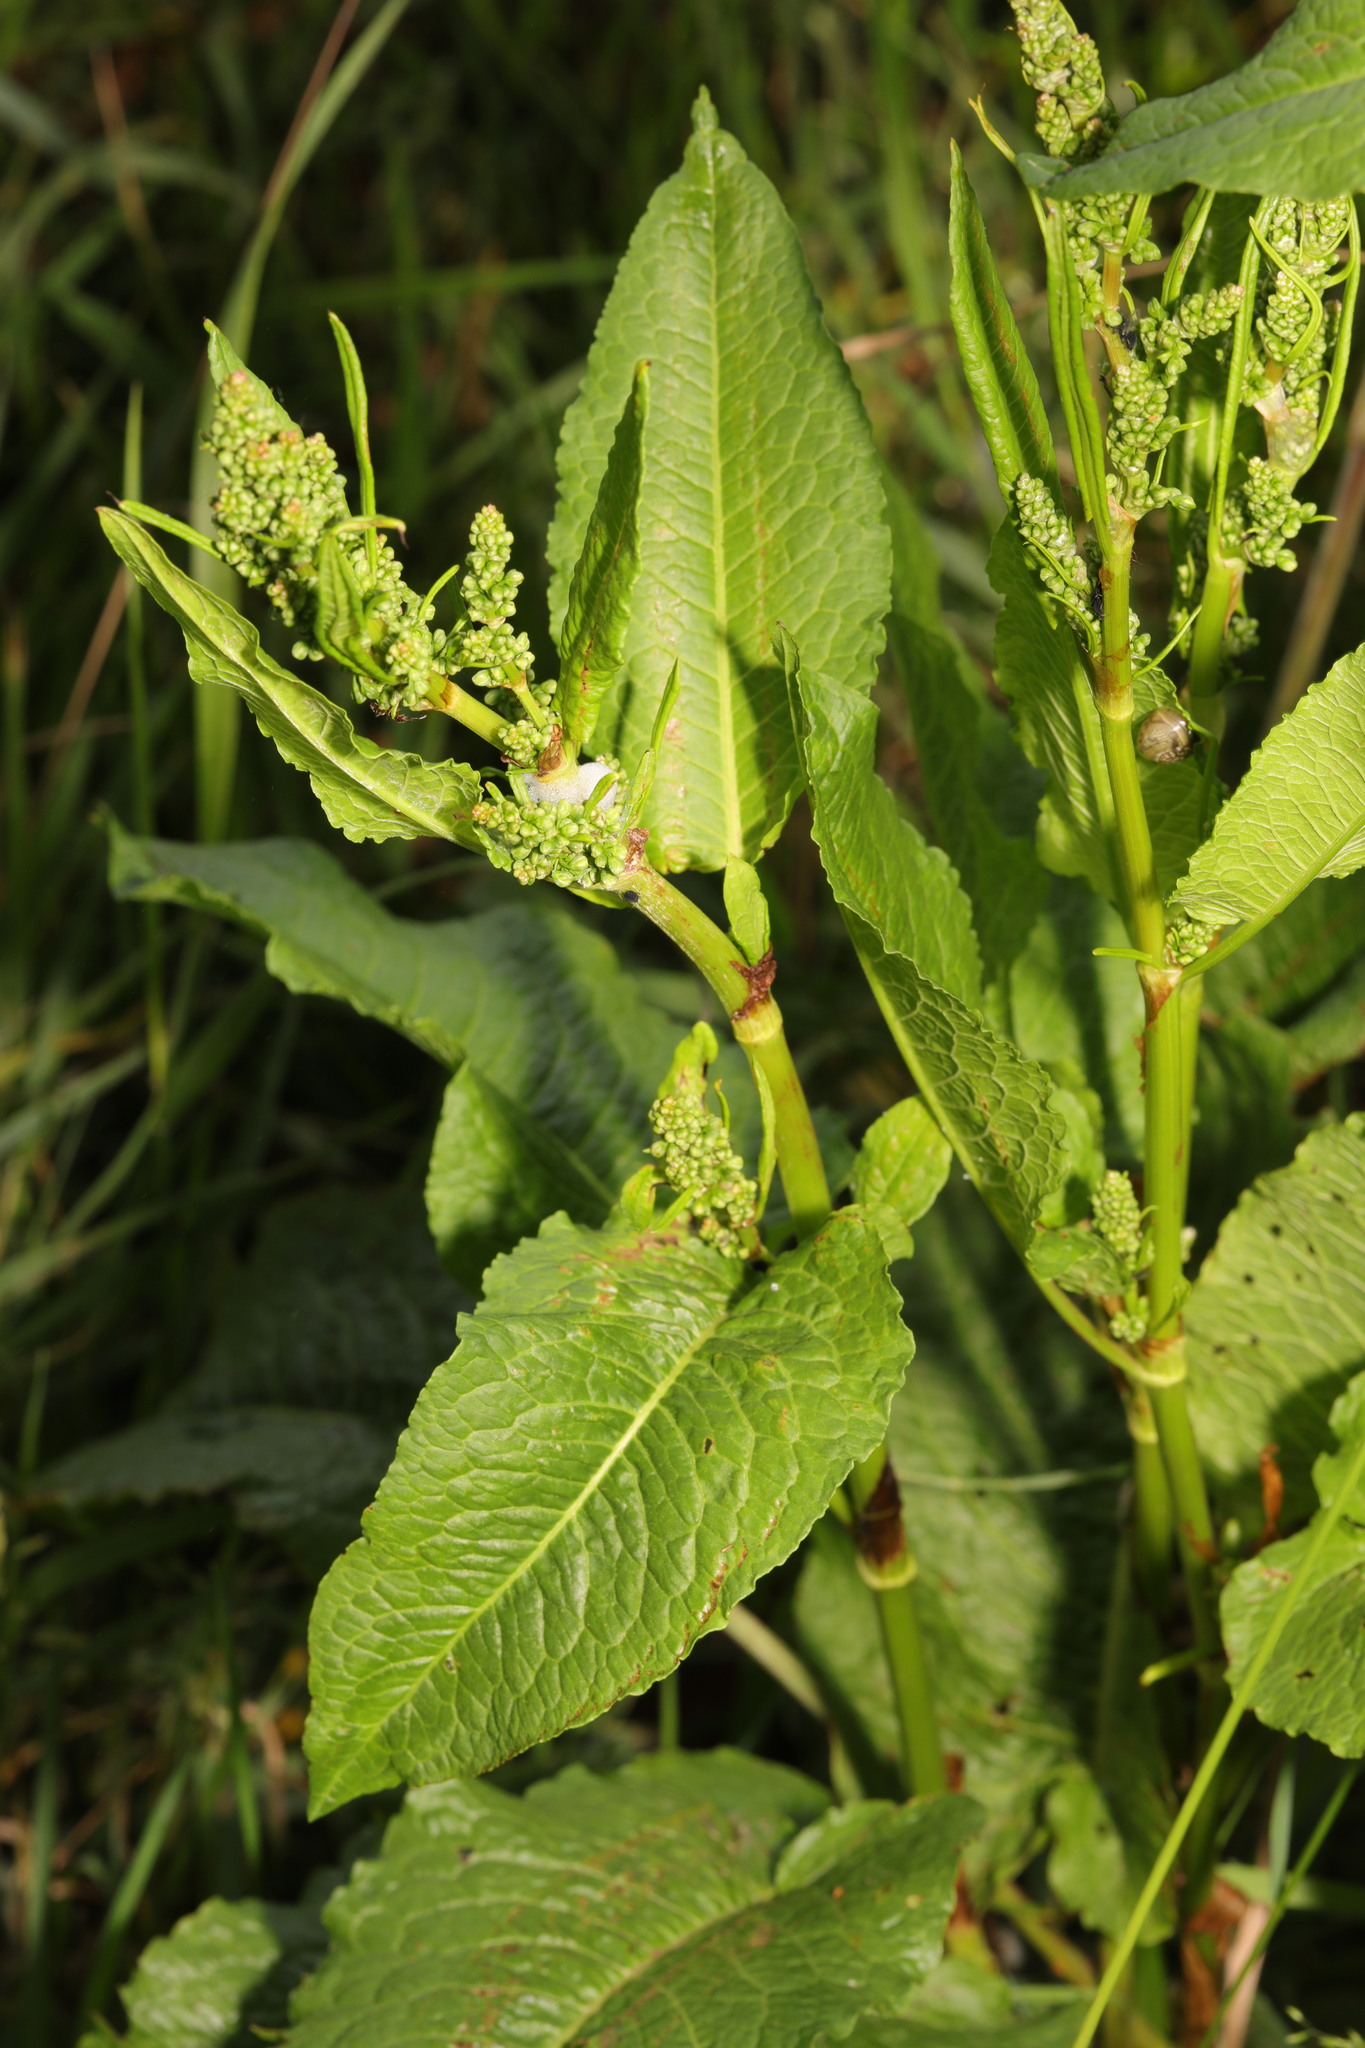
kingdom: Plantae
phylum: Tracheophyta
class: Magnoliopsida
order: Caryophyllales
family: Polygonaceae
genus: Rumex
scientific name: Rumex obtusifolius
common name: Bitter dock
